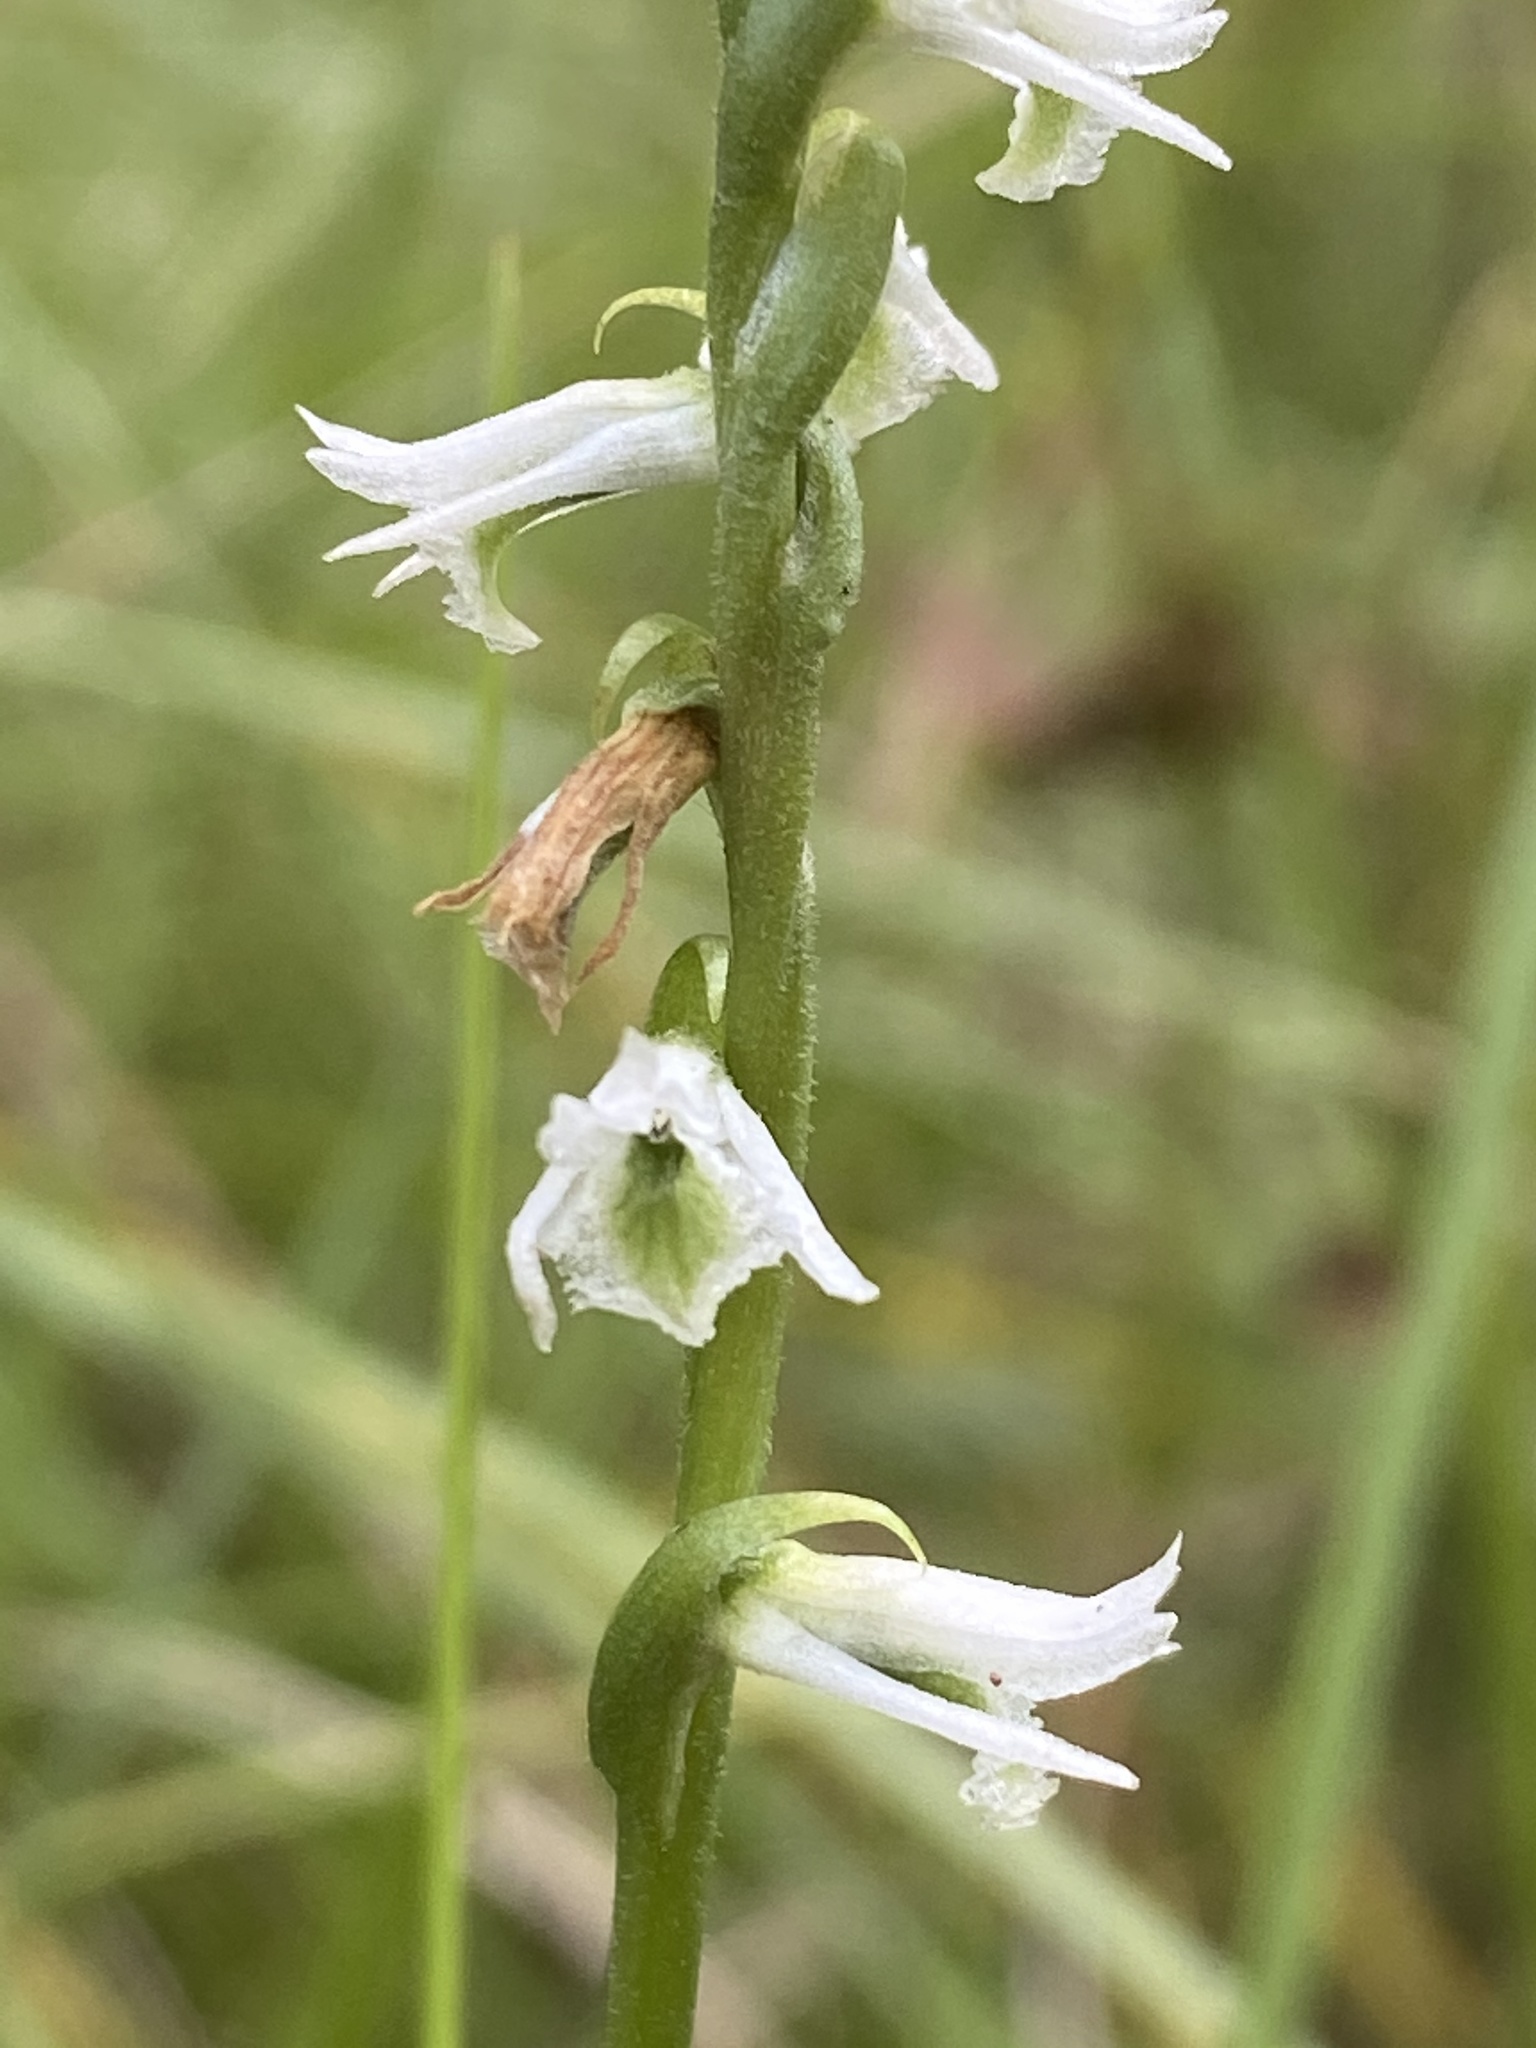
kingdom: Plantae
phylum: Tracheophyta
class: Liliopsida
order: Asparagales
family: Orchidaceae
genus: Spiranthes
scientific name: Spiranthes lacera
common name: Northern slender ladies'-tresses
